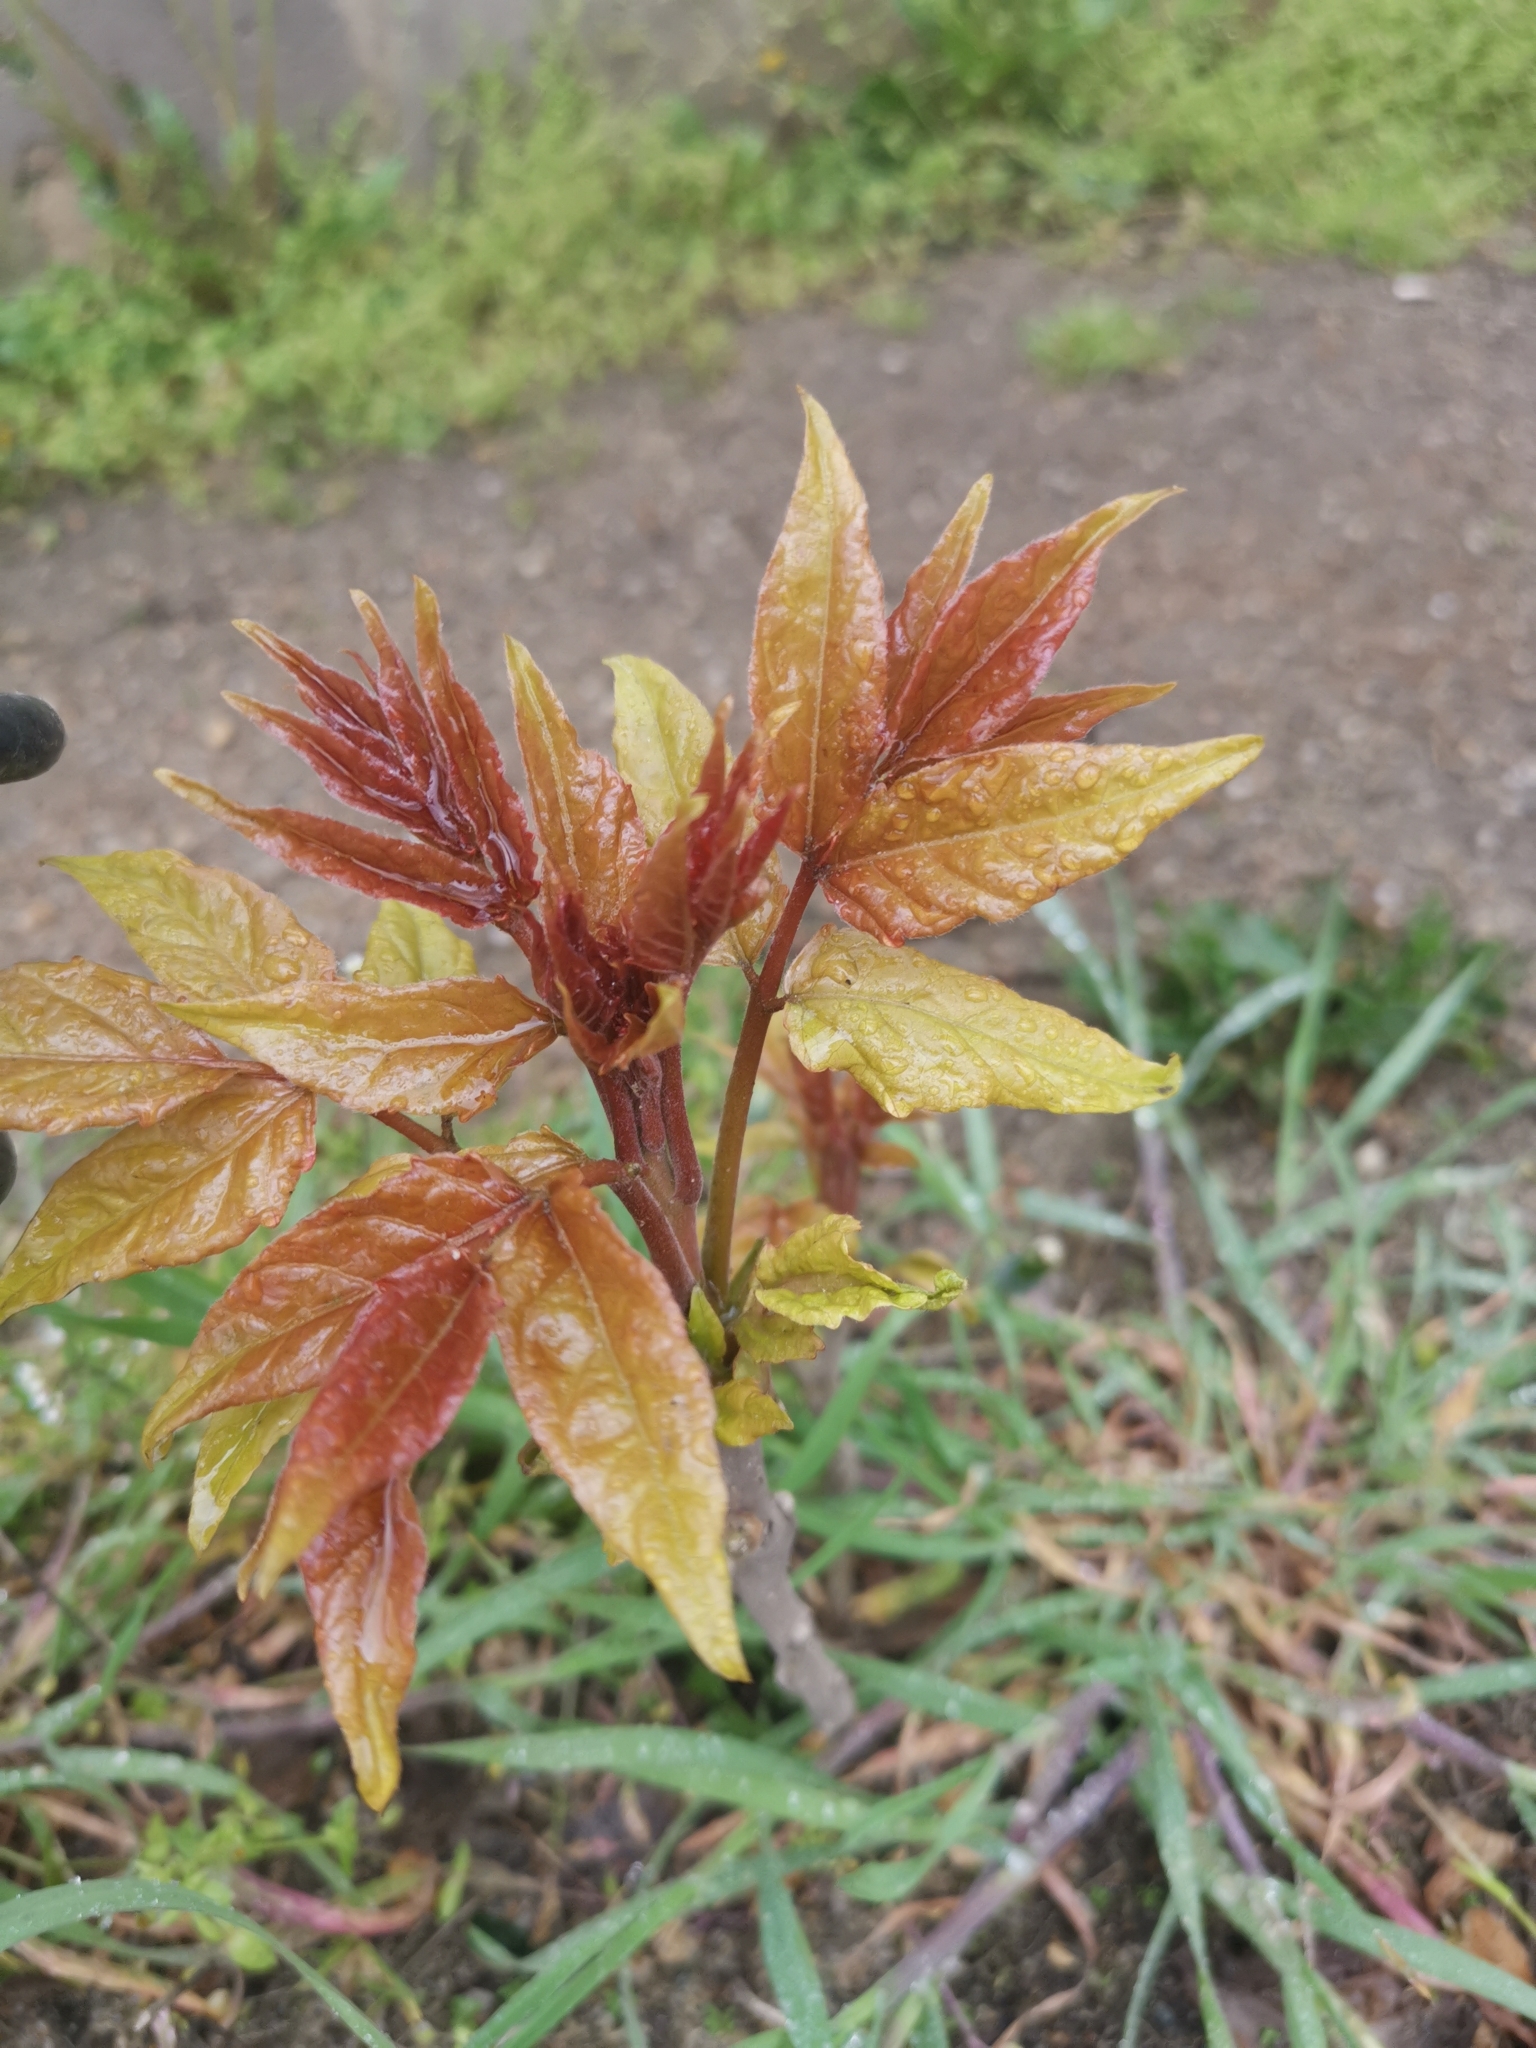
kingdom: Plantae
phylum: Tracheophyta
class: Magnoliopsida
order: Sapindales
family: Sapindaceae
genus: Acer
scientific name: Acer negundo
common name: Ashleaf maple
